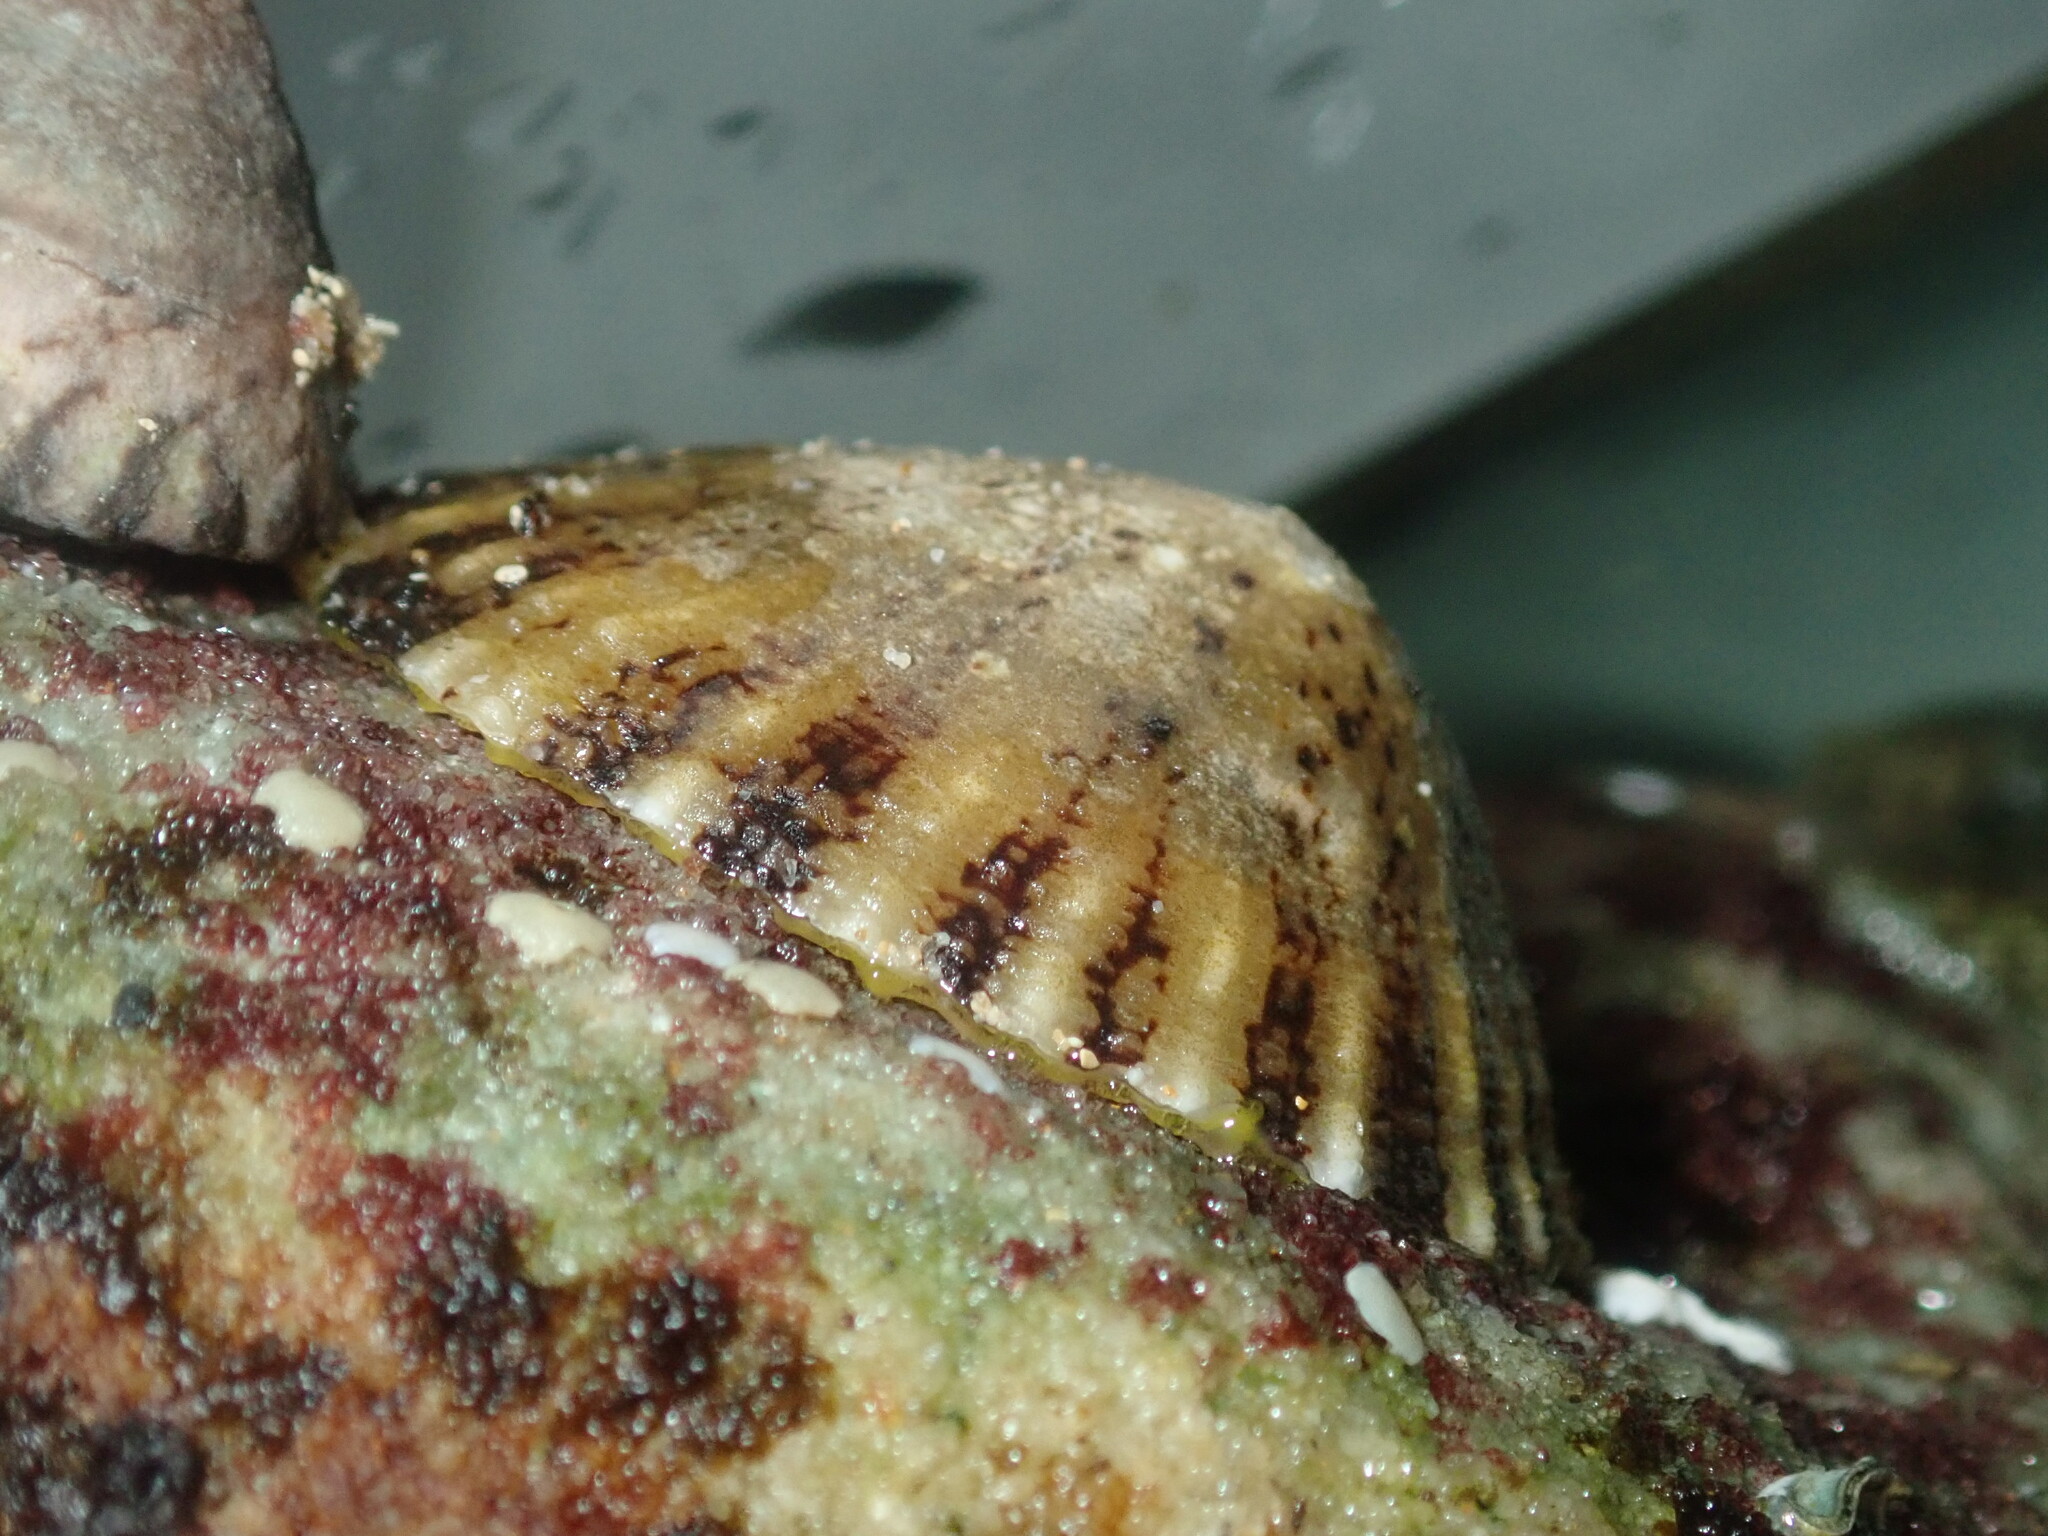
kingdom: Animalia
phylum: Mollusca
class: Gastropoda
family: Nacellidae
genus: Cellana
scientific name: Cellana tramoserica
